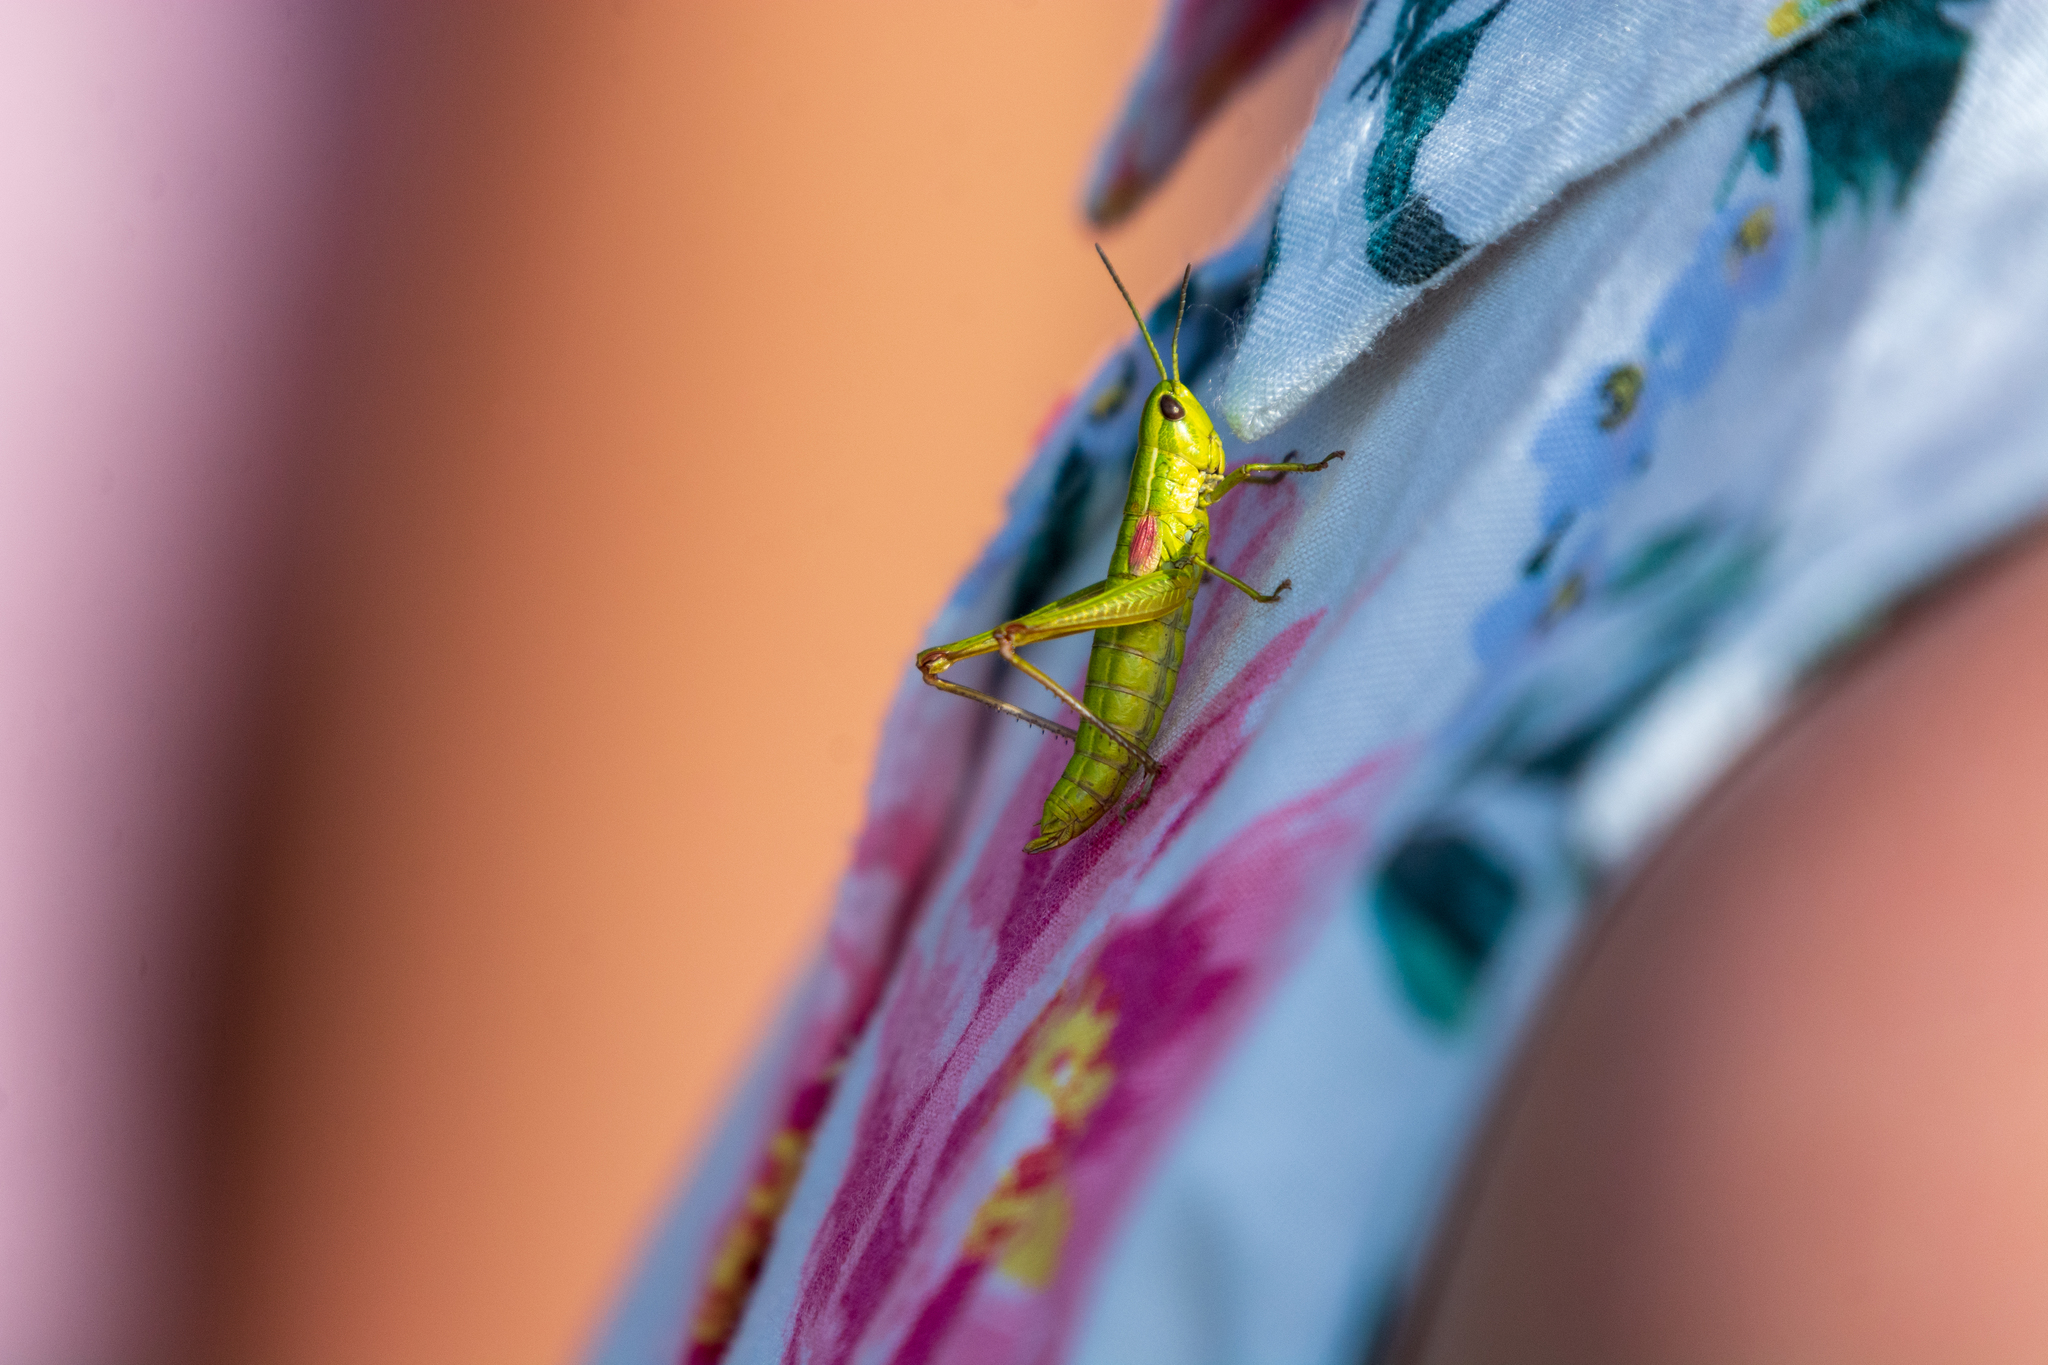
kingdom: Animalia
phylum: Arthropoda
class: Insecta
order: Orthoptera
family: Acrididae
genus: Euthystira
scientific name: Euthystira brachyptera
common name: Small gold grasshopper
